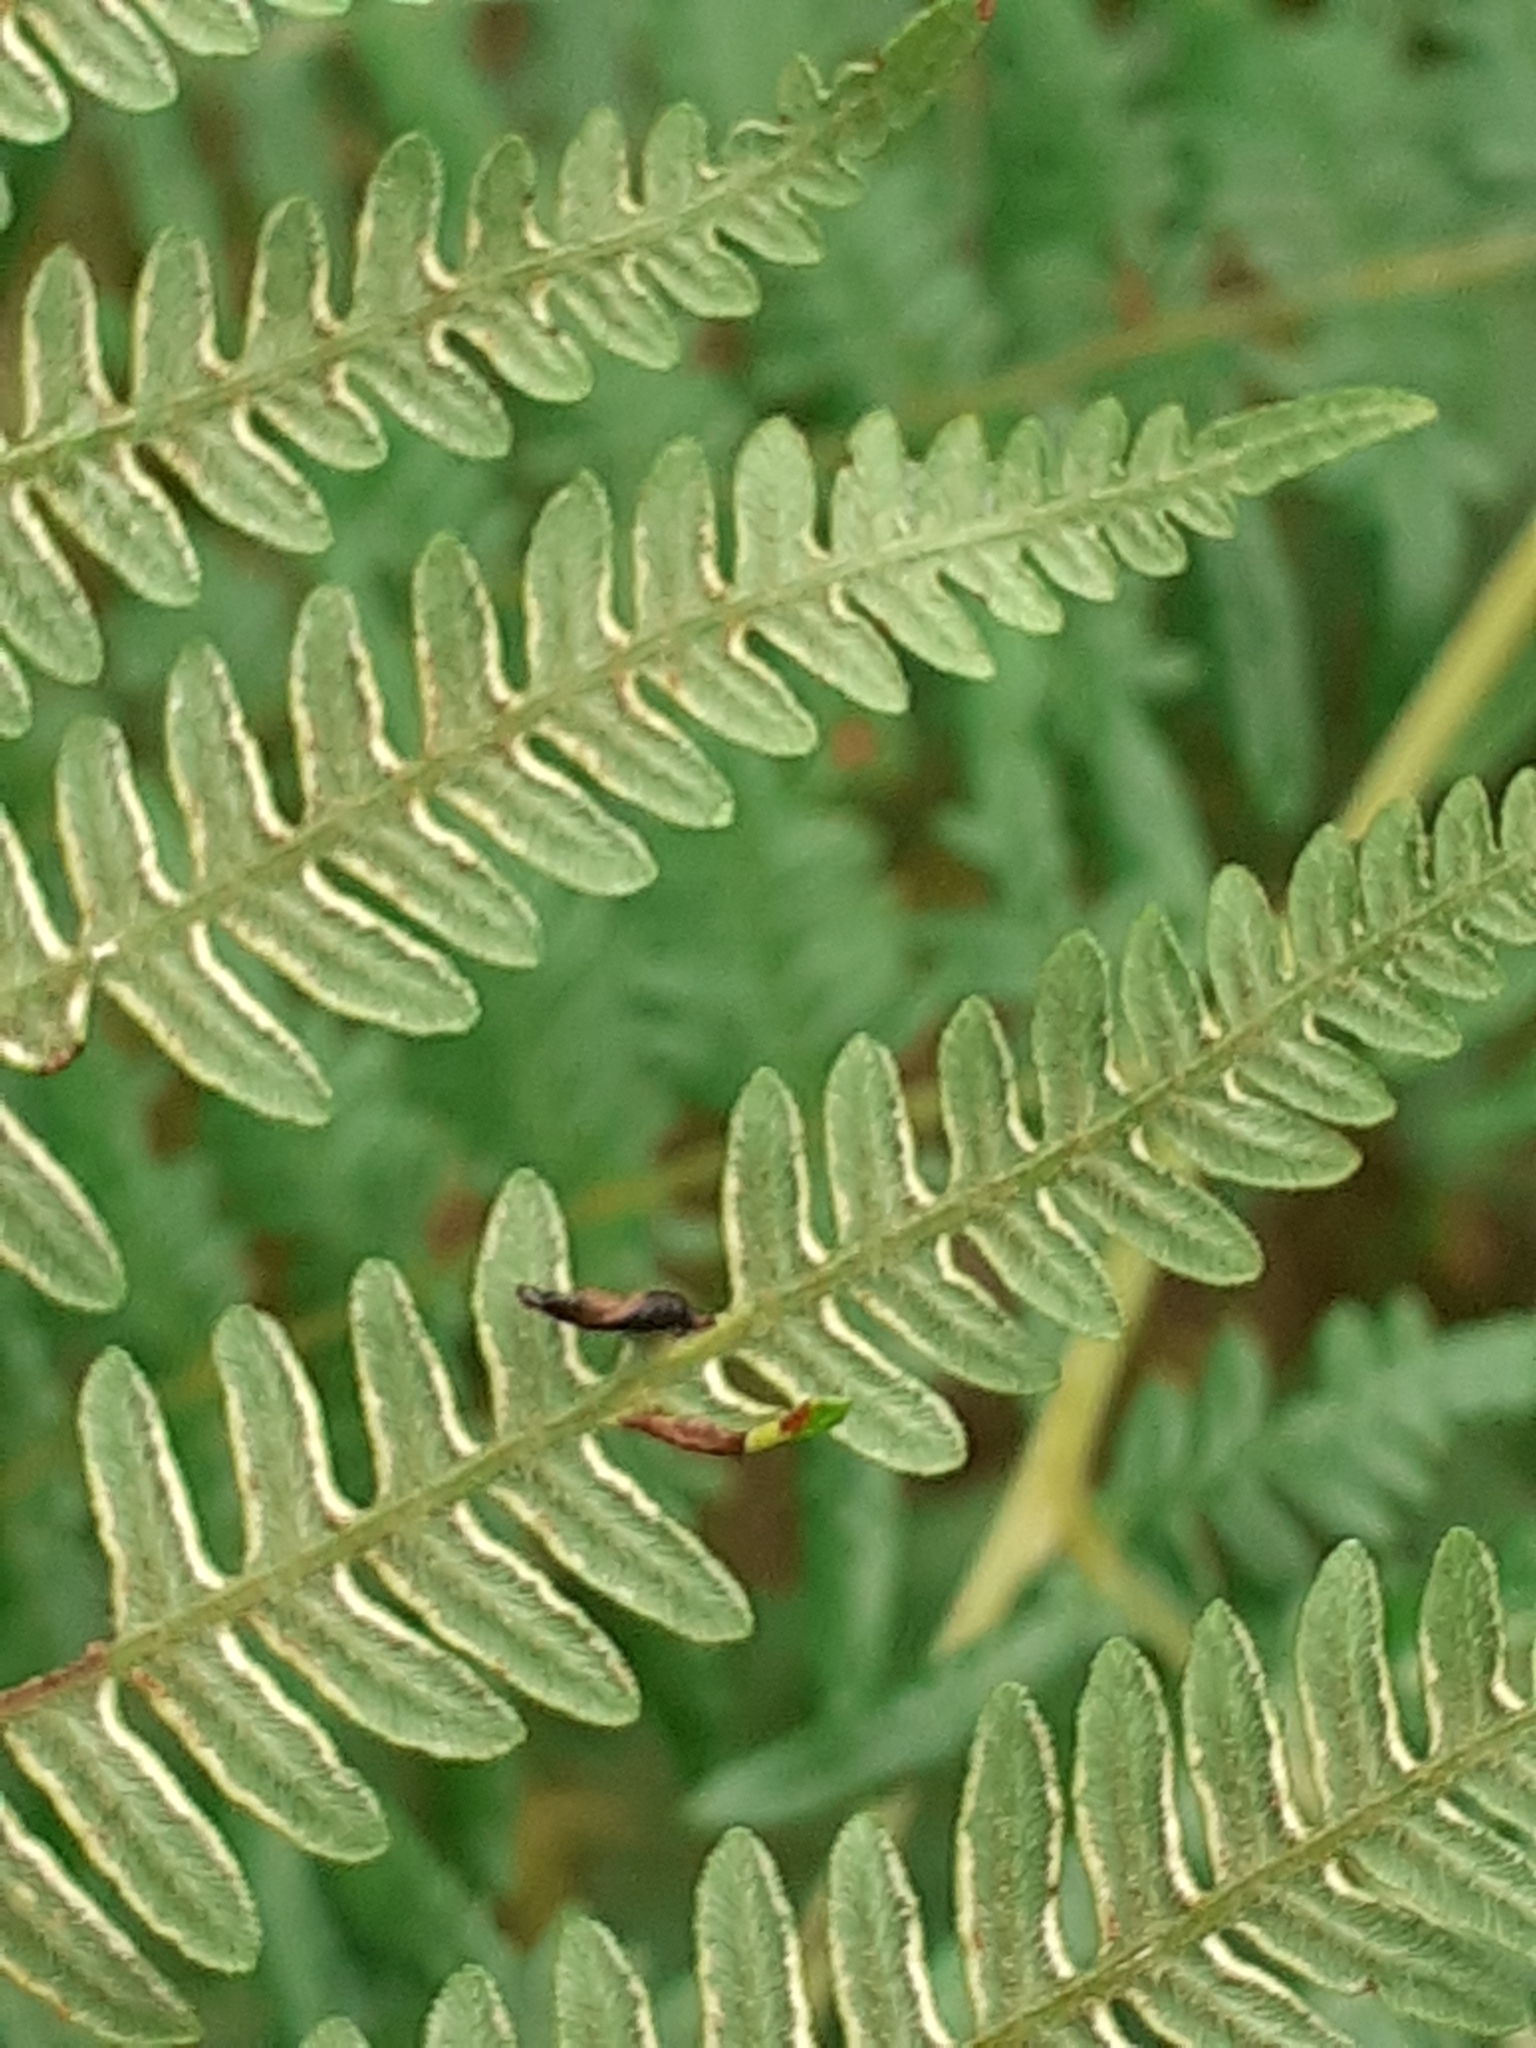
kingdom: Animalia
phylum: Arthropoda
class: Insecta
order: Diptera
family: Cecidomyiidae
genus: Dasineura
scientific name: Dasineura pteridis
